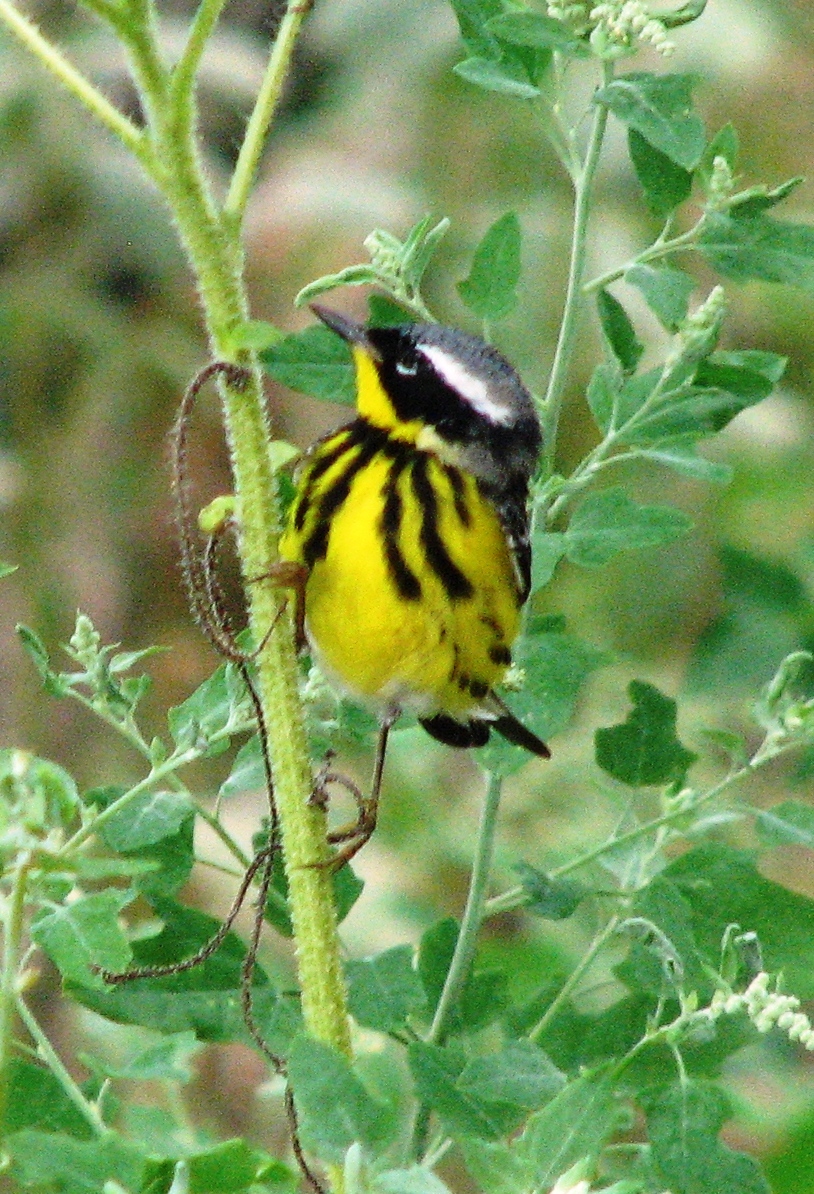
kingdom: Animalia
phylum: Chordata
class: Aves
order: Passeriformes
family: Parulidae
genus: Setophaga
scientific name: Setophaga magnolia
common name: Magnolia warbler
